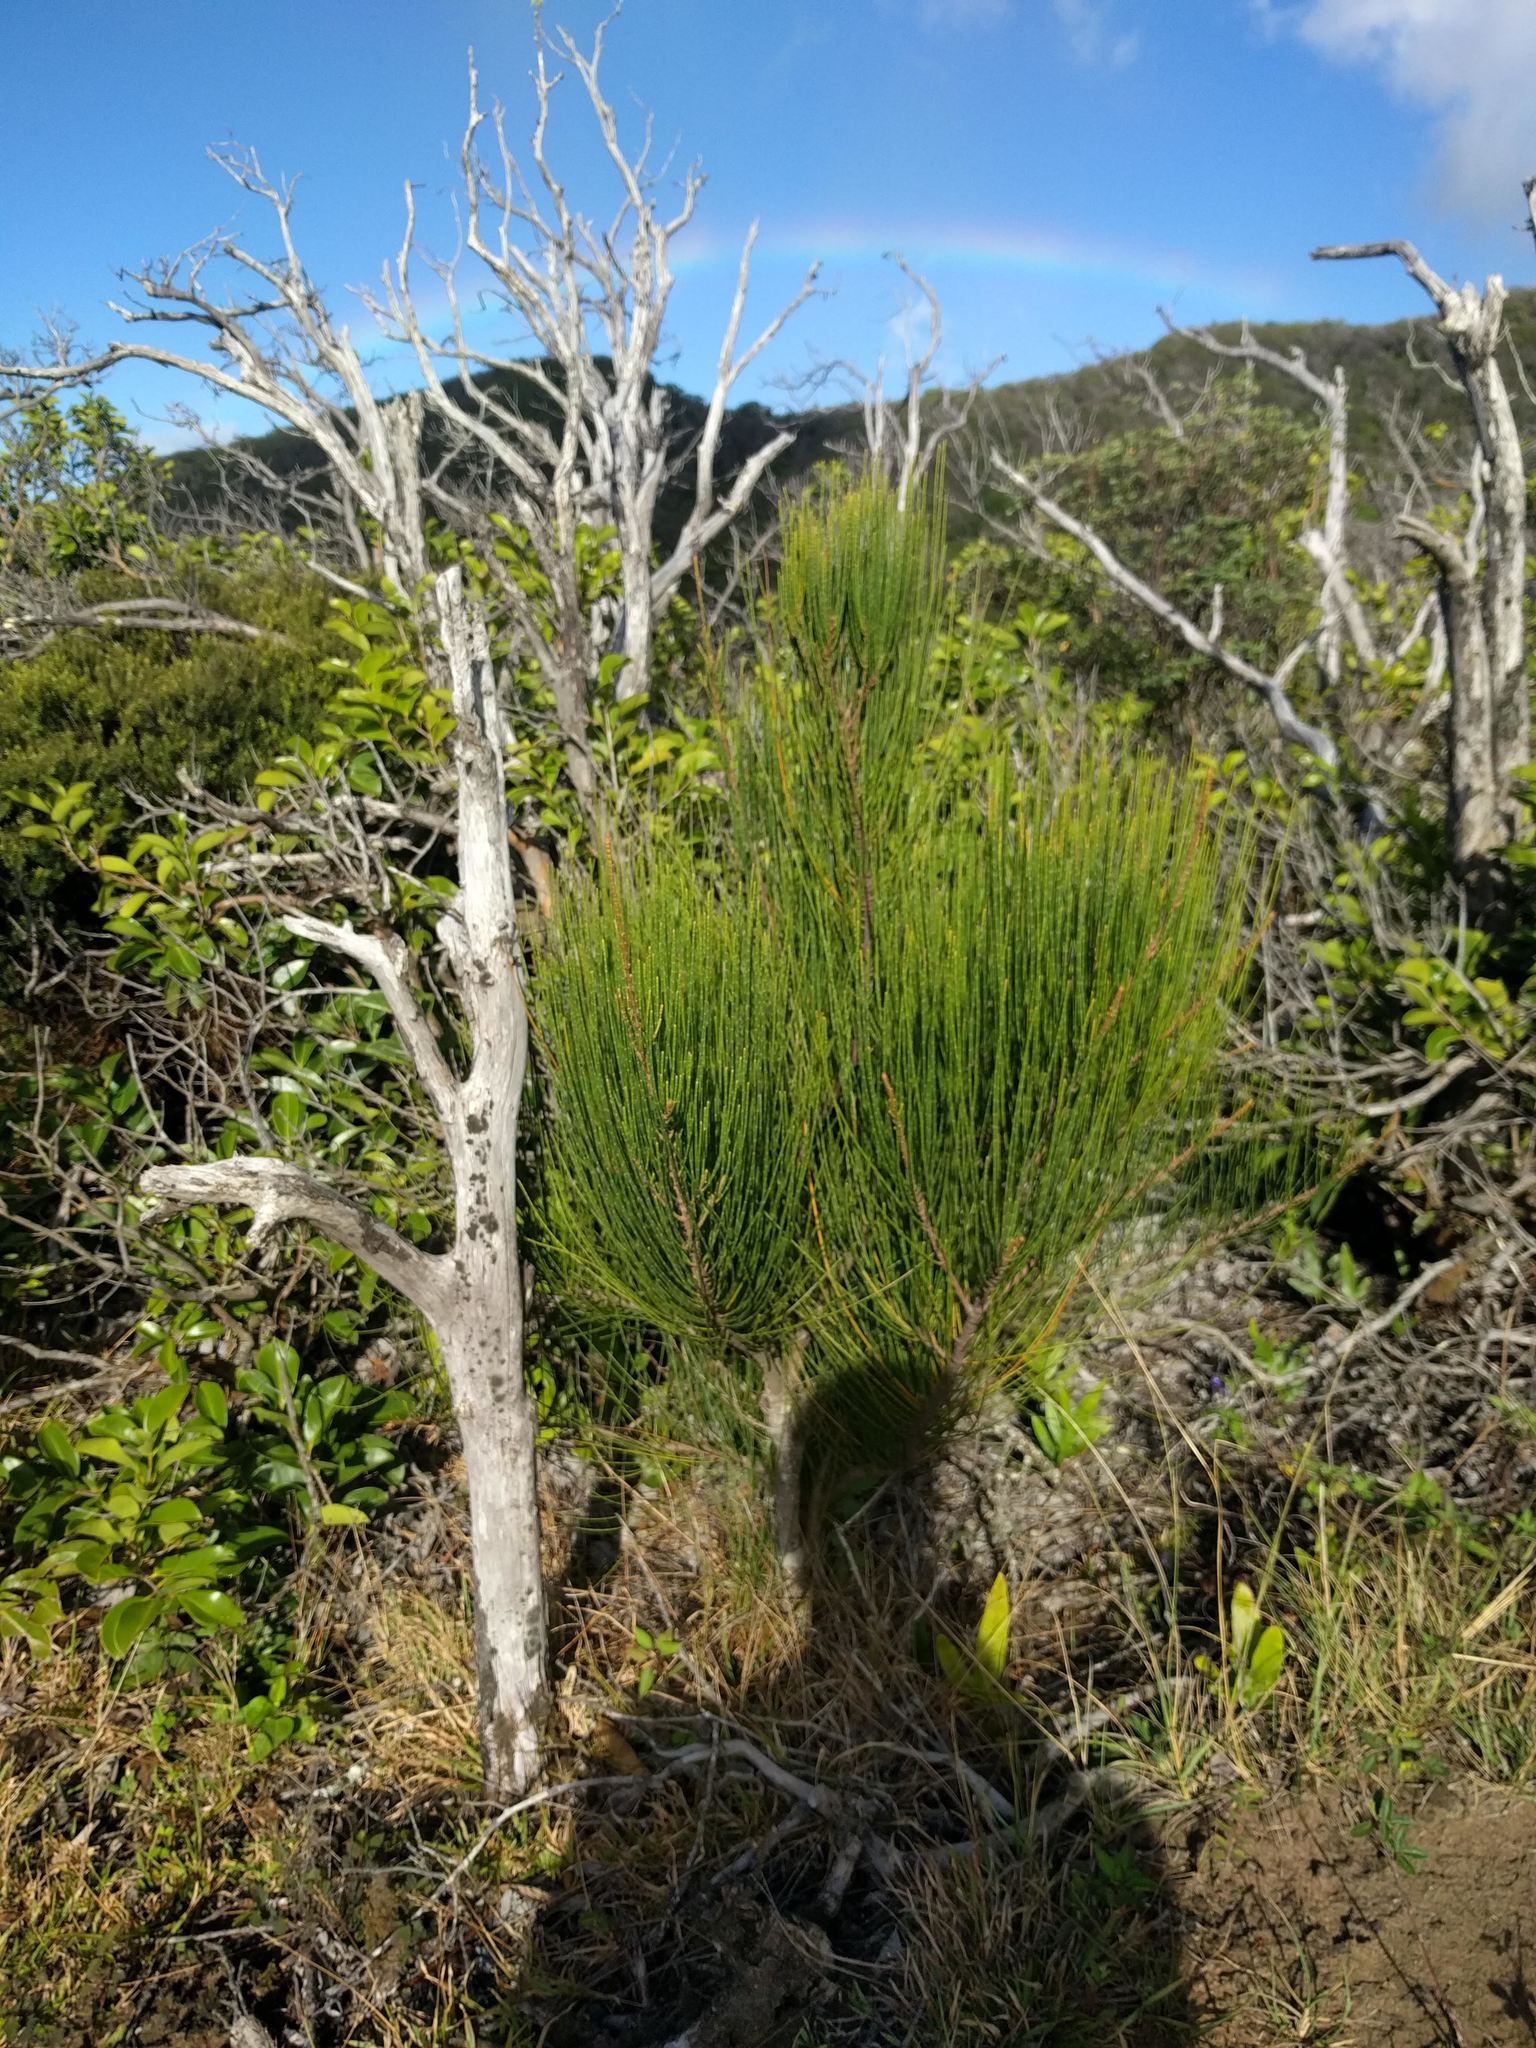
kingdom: Plantae
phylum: Tracheophyta
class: Magnoliopsida
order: Fagales
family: Casuarinaceae
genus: Casuarina
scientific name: Casuarina equisetifolia
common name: Beach sheoak
